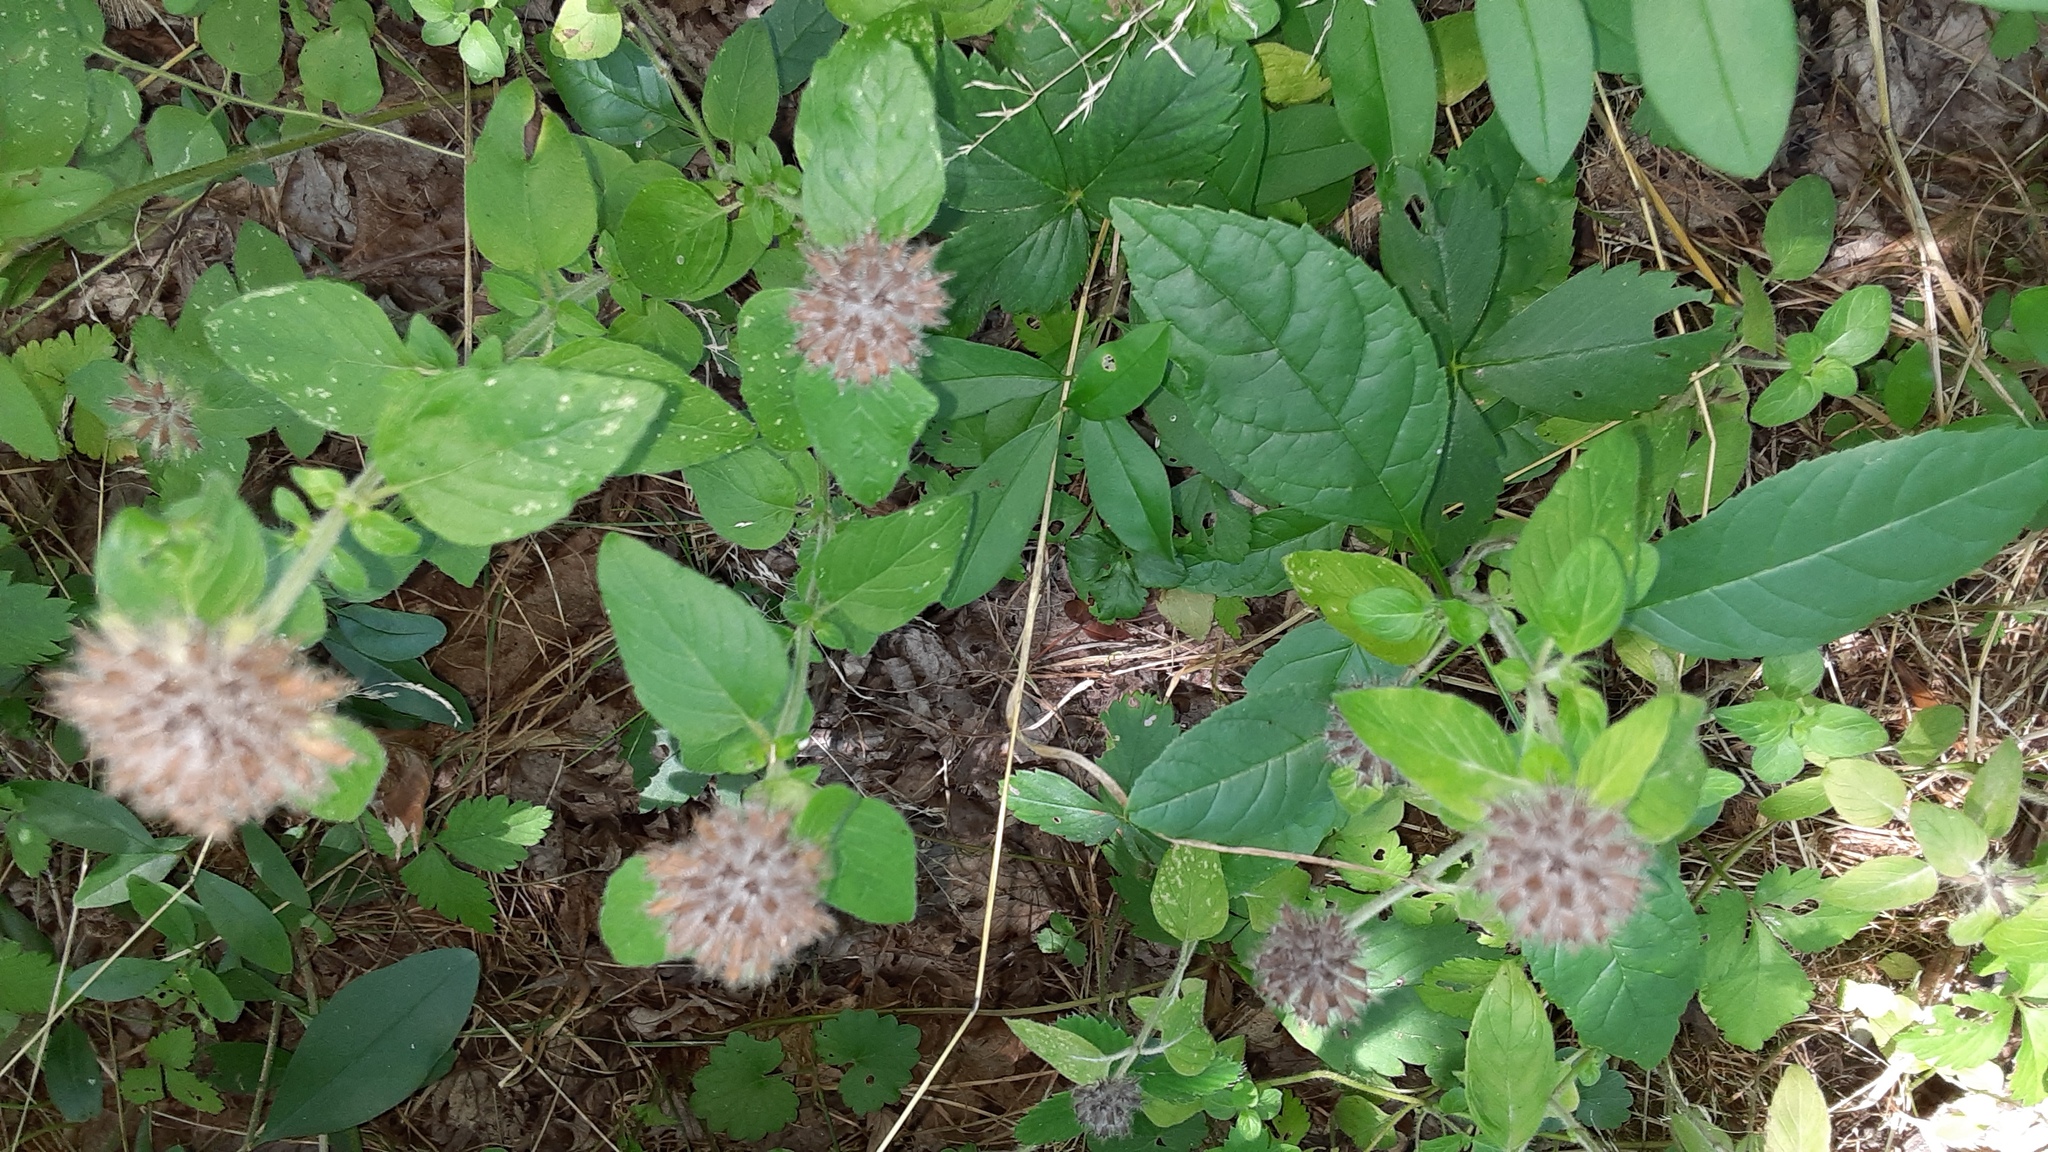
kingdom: Plantae
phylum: Tracheophyta
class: Magnoliopsida
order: Lamiales
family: Lamiaceae
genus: Clinopodium
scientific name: Clinopodium vulgare
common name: Wild basil
